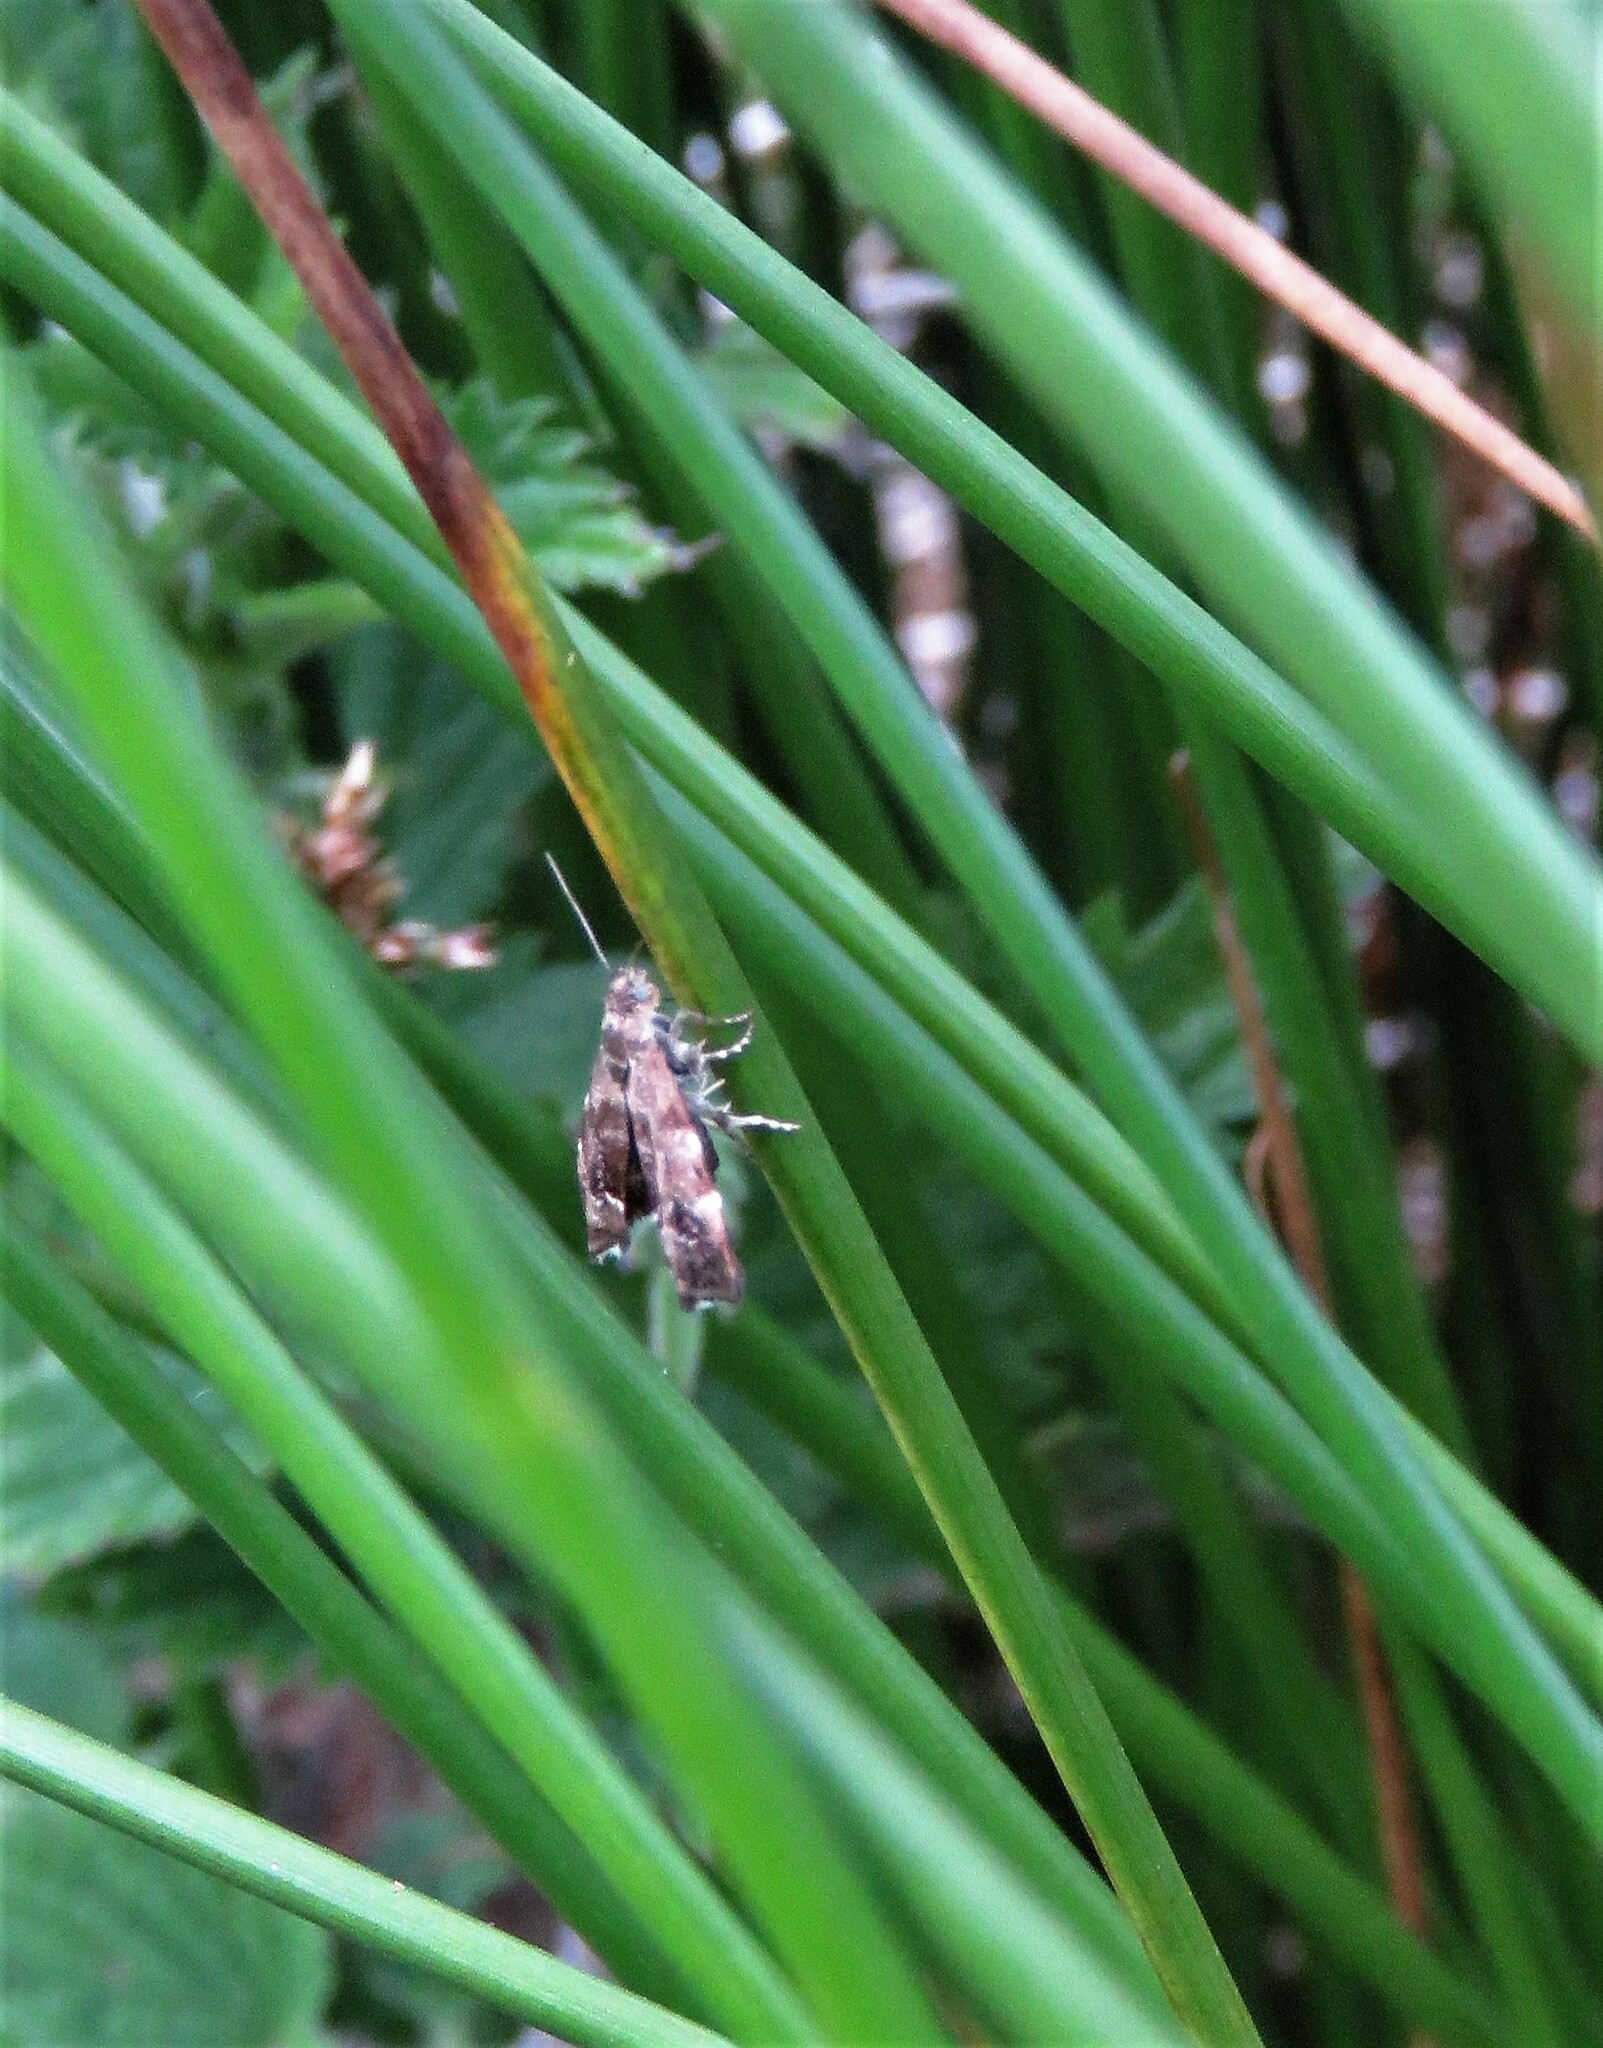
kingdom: Animalia
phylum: Arthropoda
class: Insecta
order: Lepidoptera
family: Choreutidae
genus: Anthophila
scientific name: Anthophila fabriciana
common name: Nettle-tap
